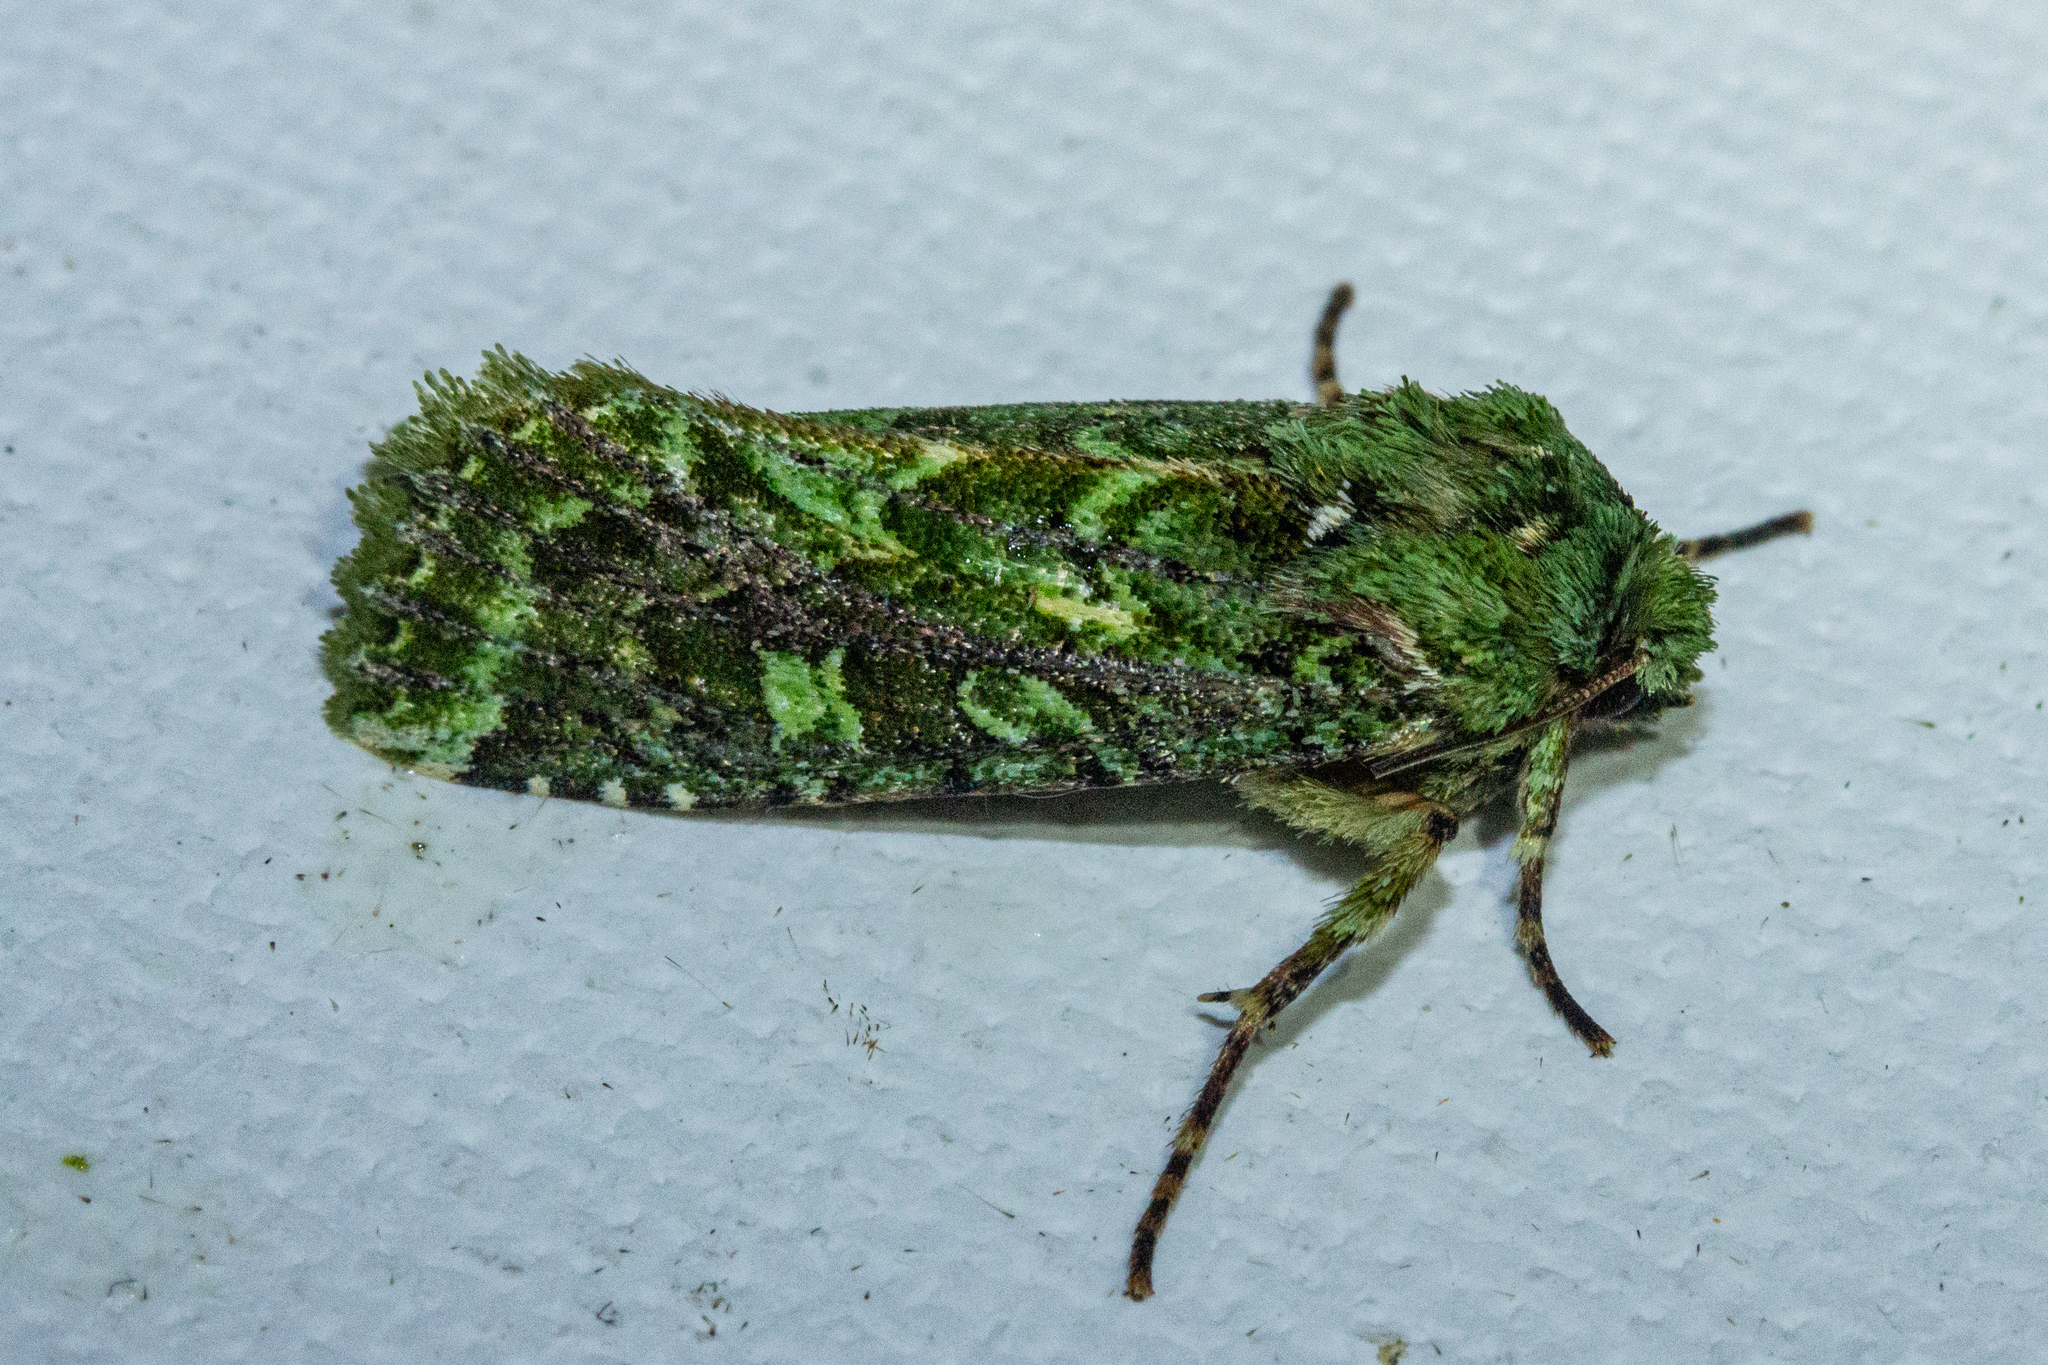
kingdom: Animalia
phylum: Arthropoda
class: Insecta
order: Lepidoptera
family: Noctuidae
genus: Feredayia
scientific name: Feredayia grammosa
